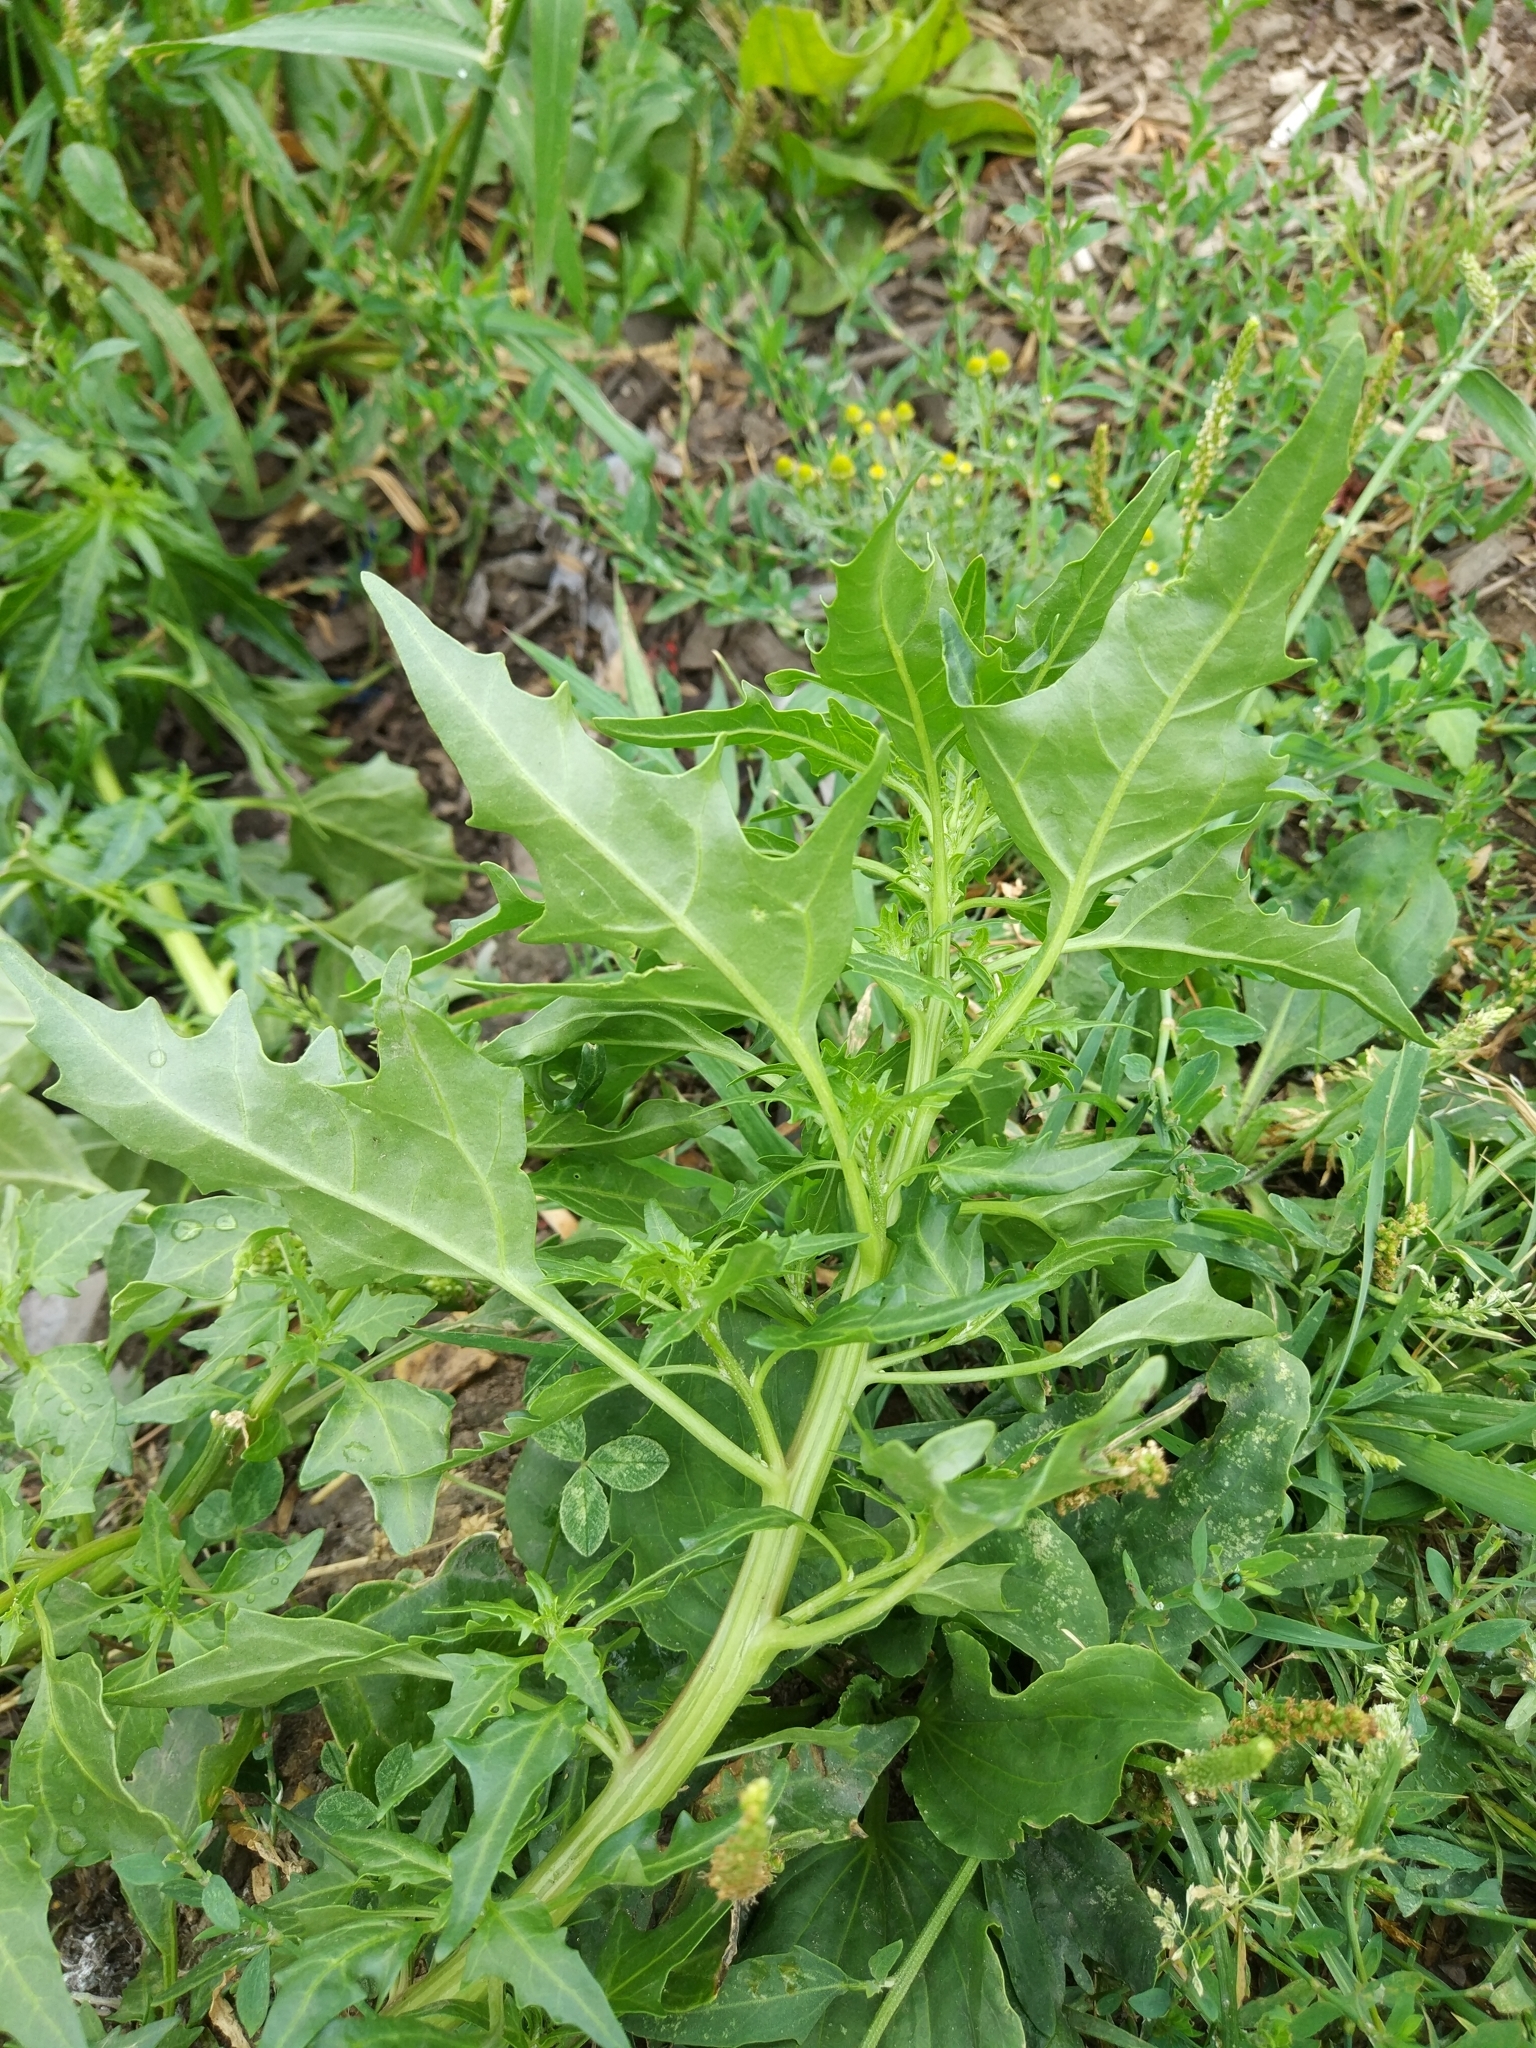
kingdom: Plantae
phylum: Tracheophyta
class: Magnoliopsida
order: Caryophyllales
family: Amaranthaceae
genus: Oxybasis
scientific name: Oxybasis rubra
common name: Red goosefoot
